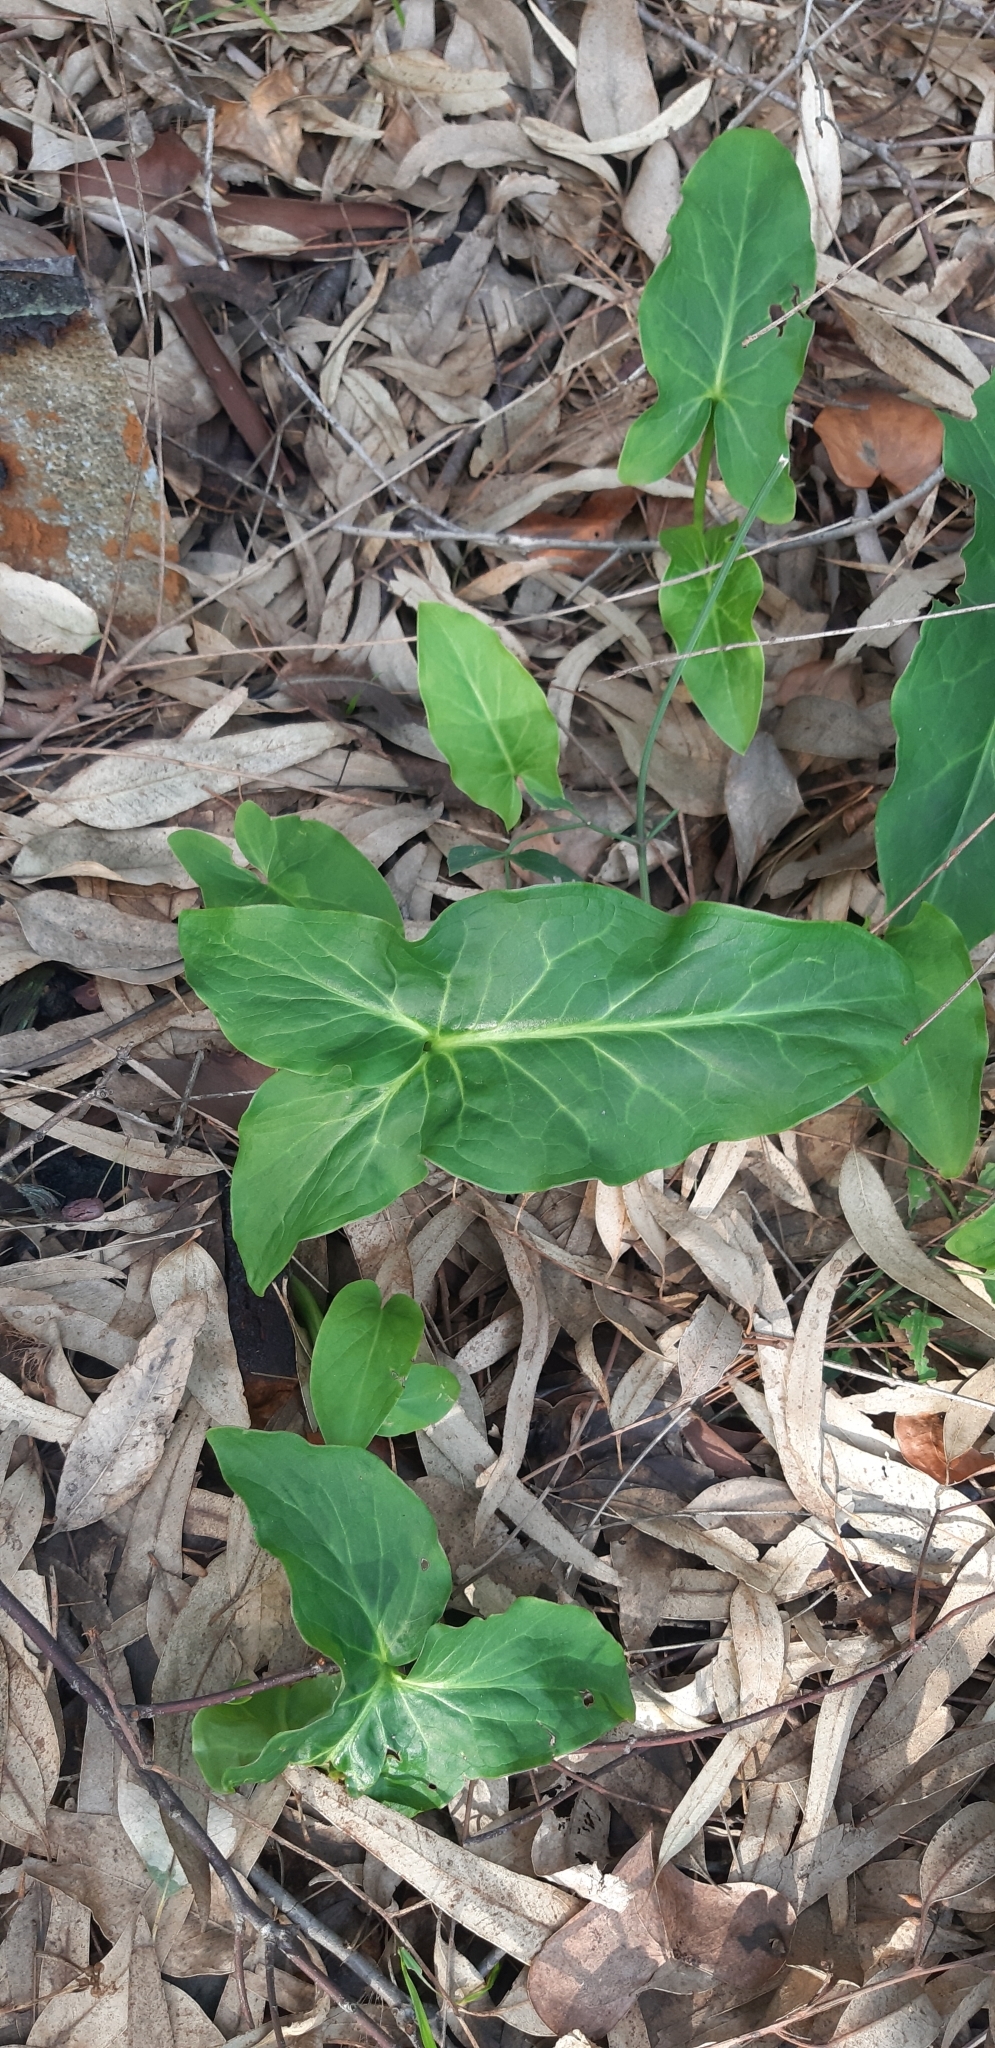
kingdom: Plantae
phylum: Tracheophyta
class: Liliopsida
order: Alismatales
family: Araceae
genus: Arum
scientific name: Arum italicum
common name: Italian lords-and-ladies
